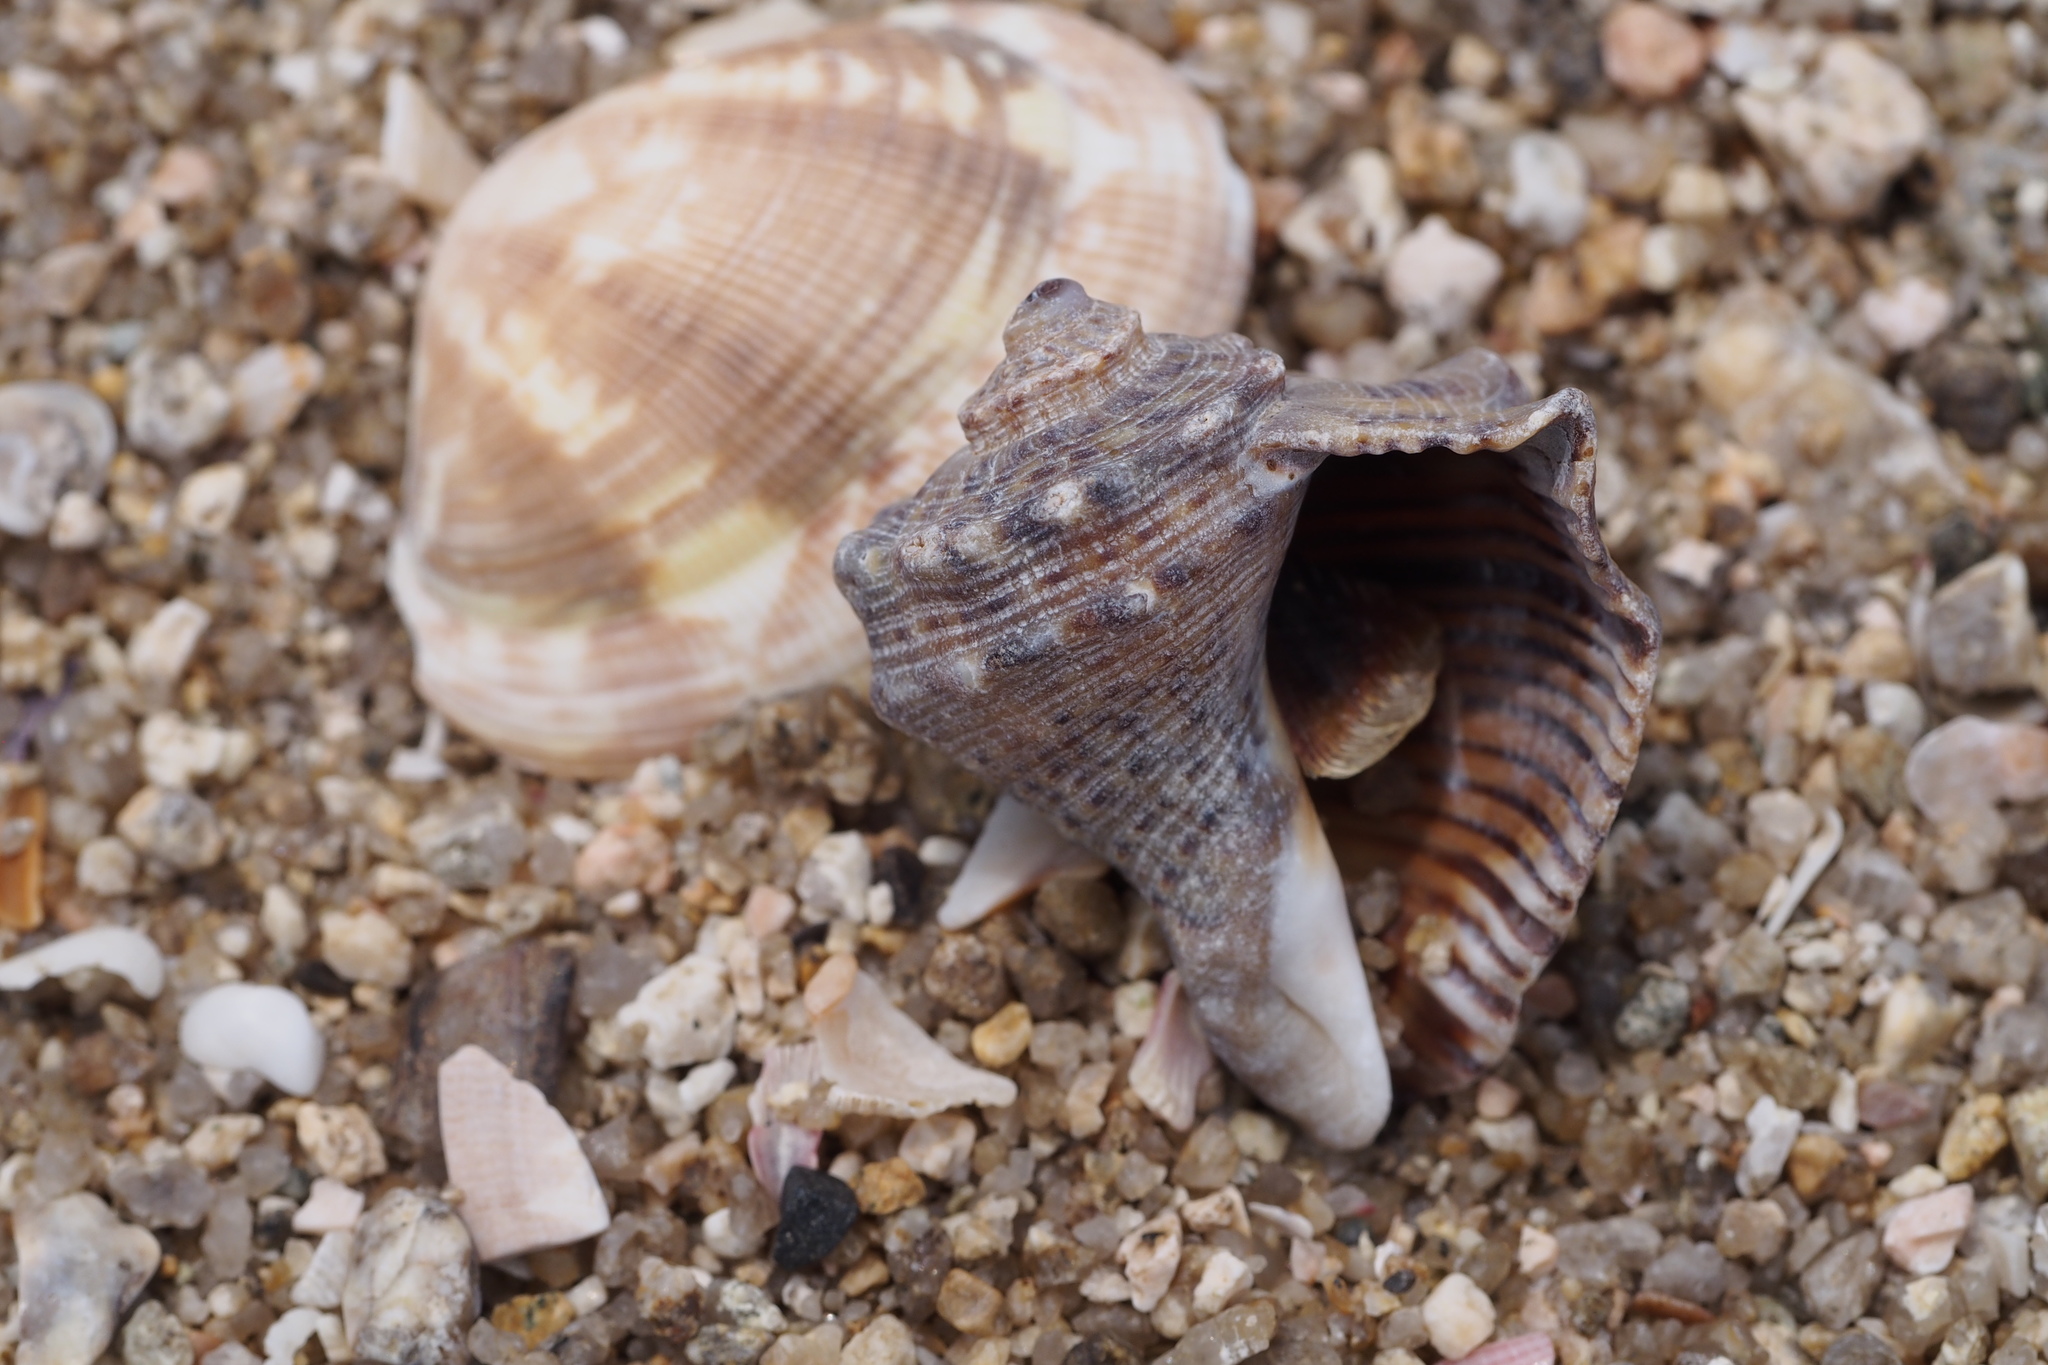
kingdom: Animalia
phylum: Mollusca
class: Gastropoda
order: Neogastropoda
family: Muricidae
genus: Rapana
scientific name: Rapana venosa
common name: Veined rapa whelk
